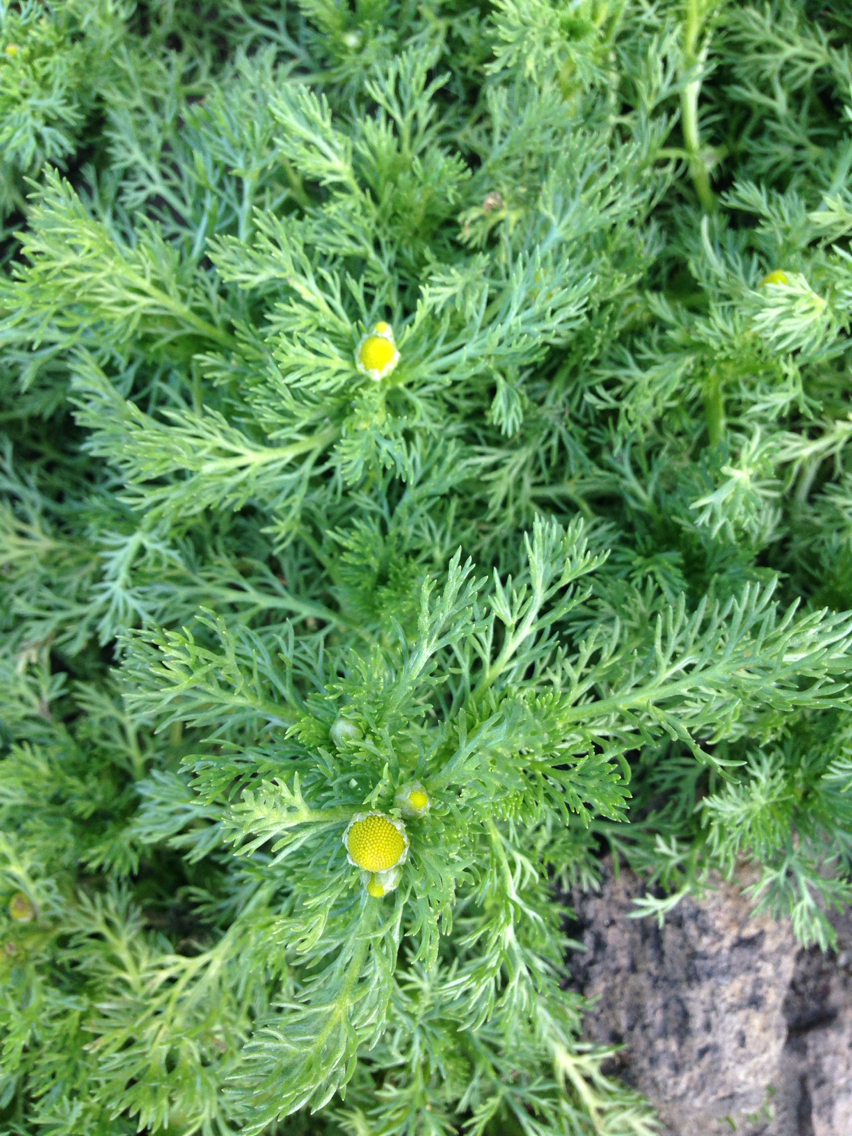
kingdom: Plantae
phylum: Tracheophyta
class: Magnoliopsida
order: Asterales
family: Asteraceae
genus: Matricaria
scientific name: Matricaria discoidea
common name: Disc mayweed
